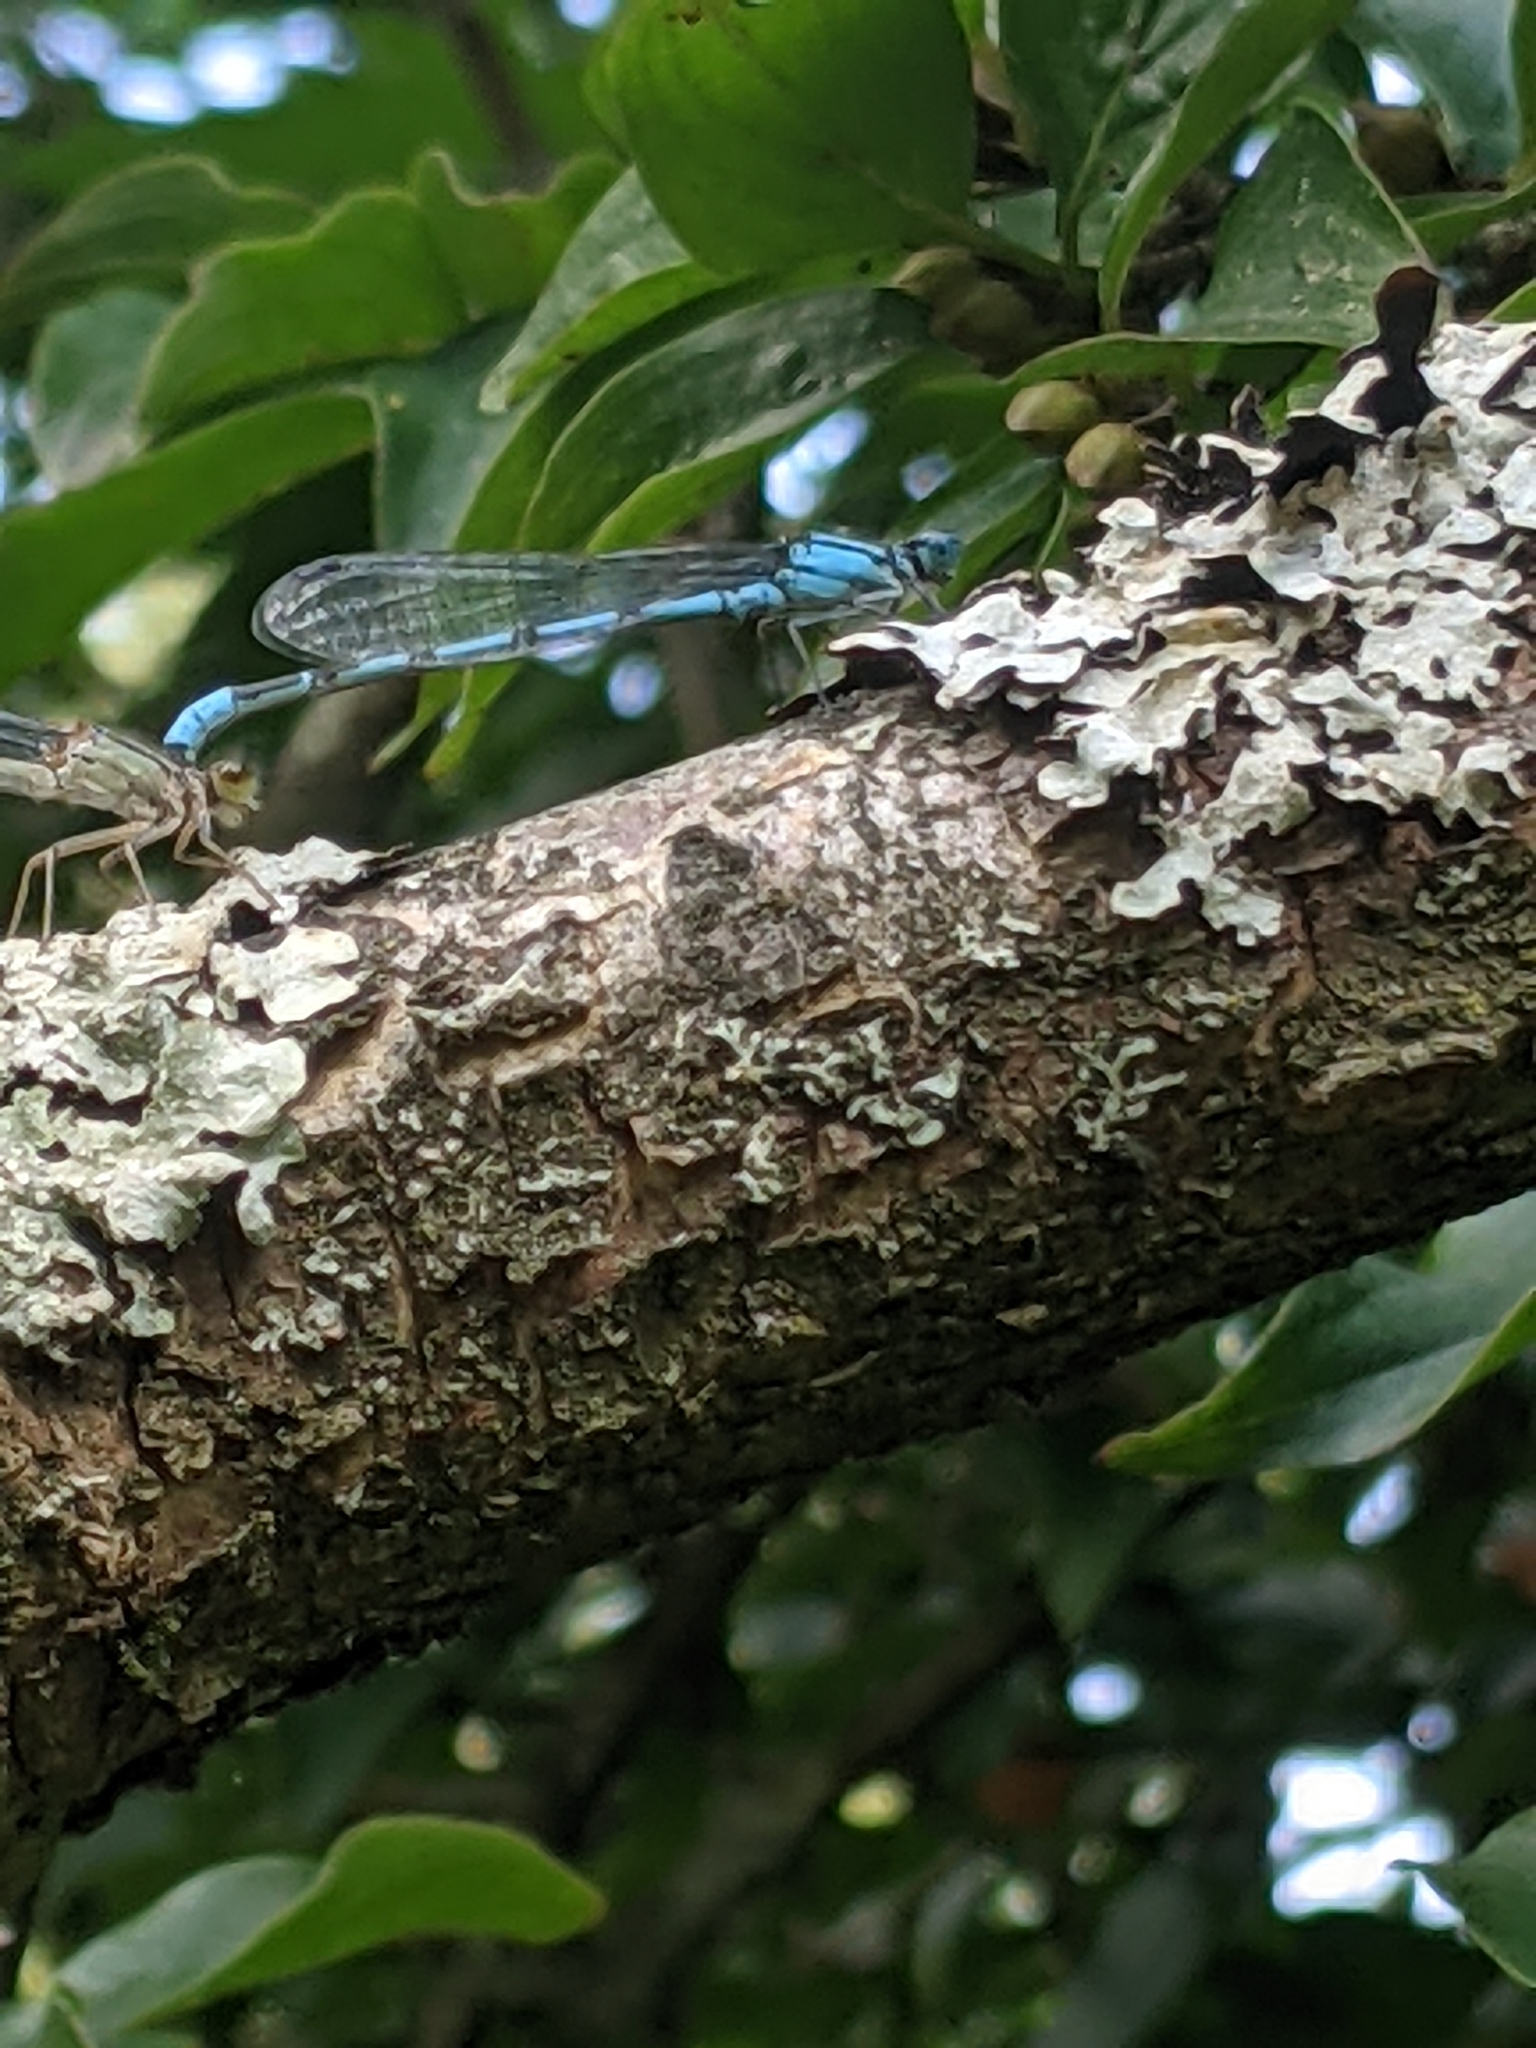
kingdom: Animalia
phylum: Arthropoda
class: Insecta
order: Odonata
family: Coenagrionidae
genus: Enallagma
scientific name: Enallagma cyathigerum
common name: Common blue damselfly
